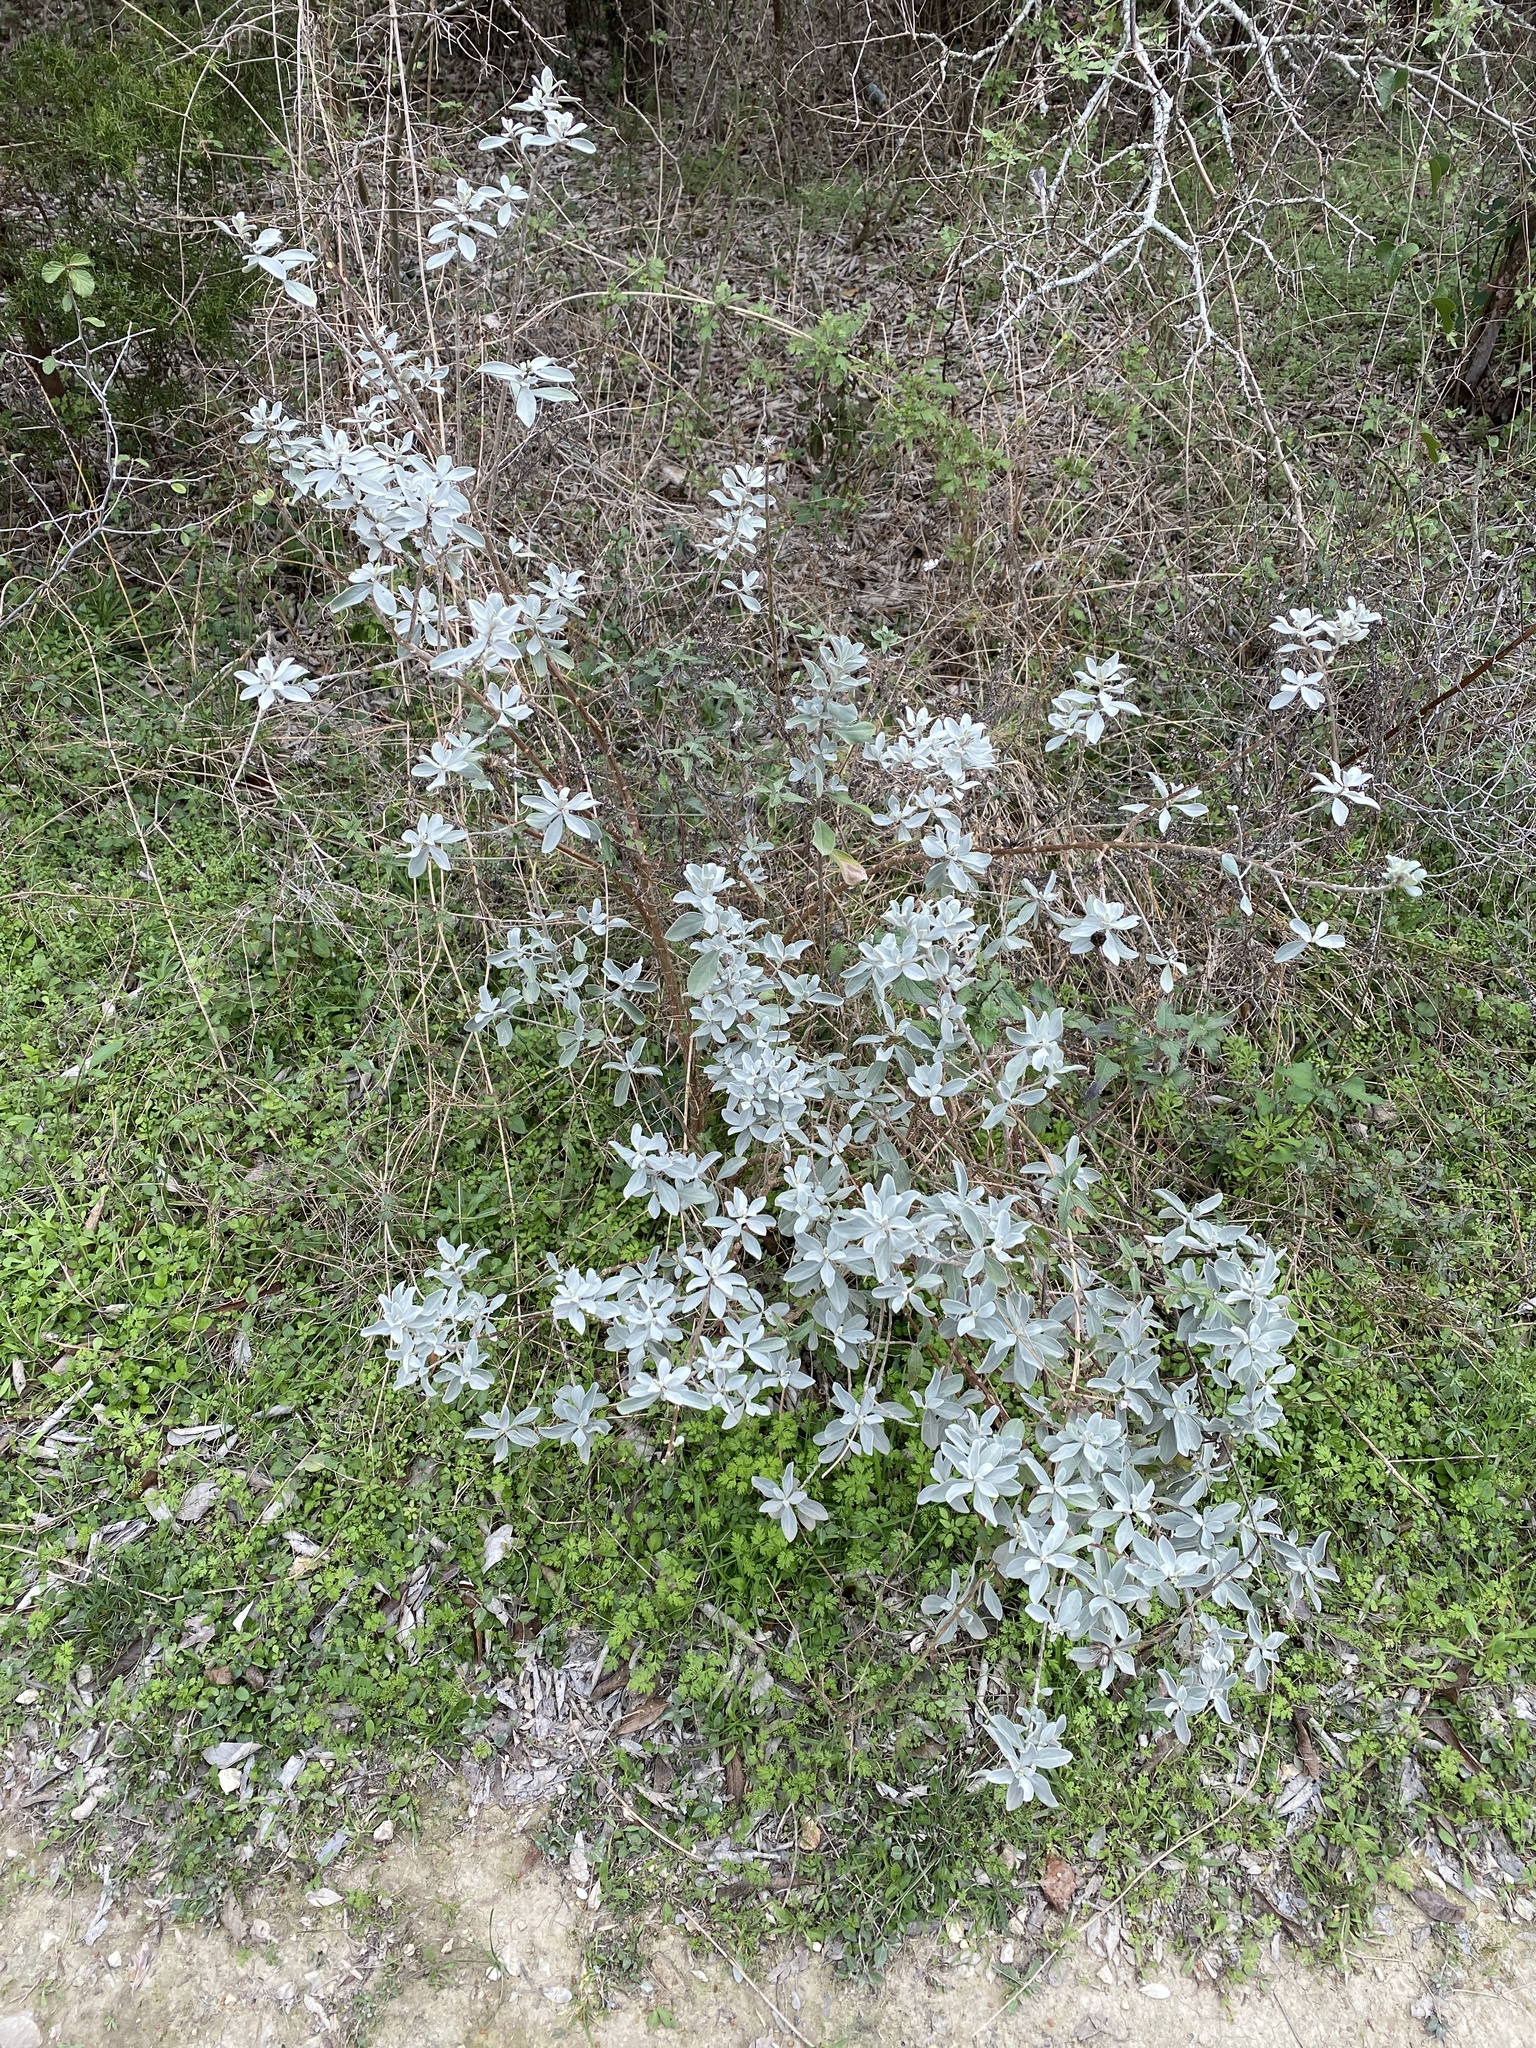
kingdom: Plantae
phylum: Tracheophyta
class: Magnoliopsida
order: Lamiales
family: Scrophulariaceae
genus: Leucophyllum
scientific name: Leucophyllum frutescens
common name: Texas silverleaf
